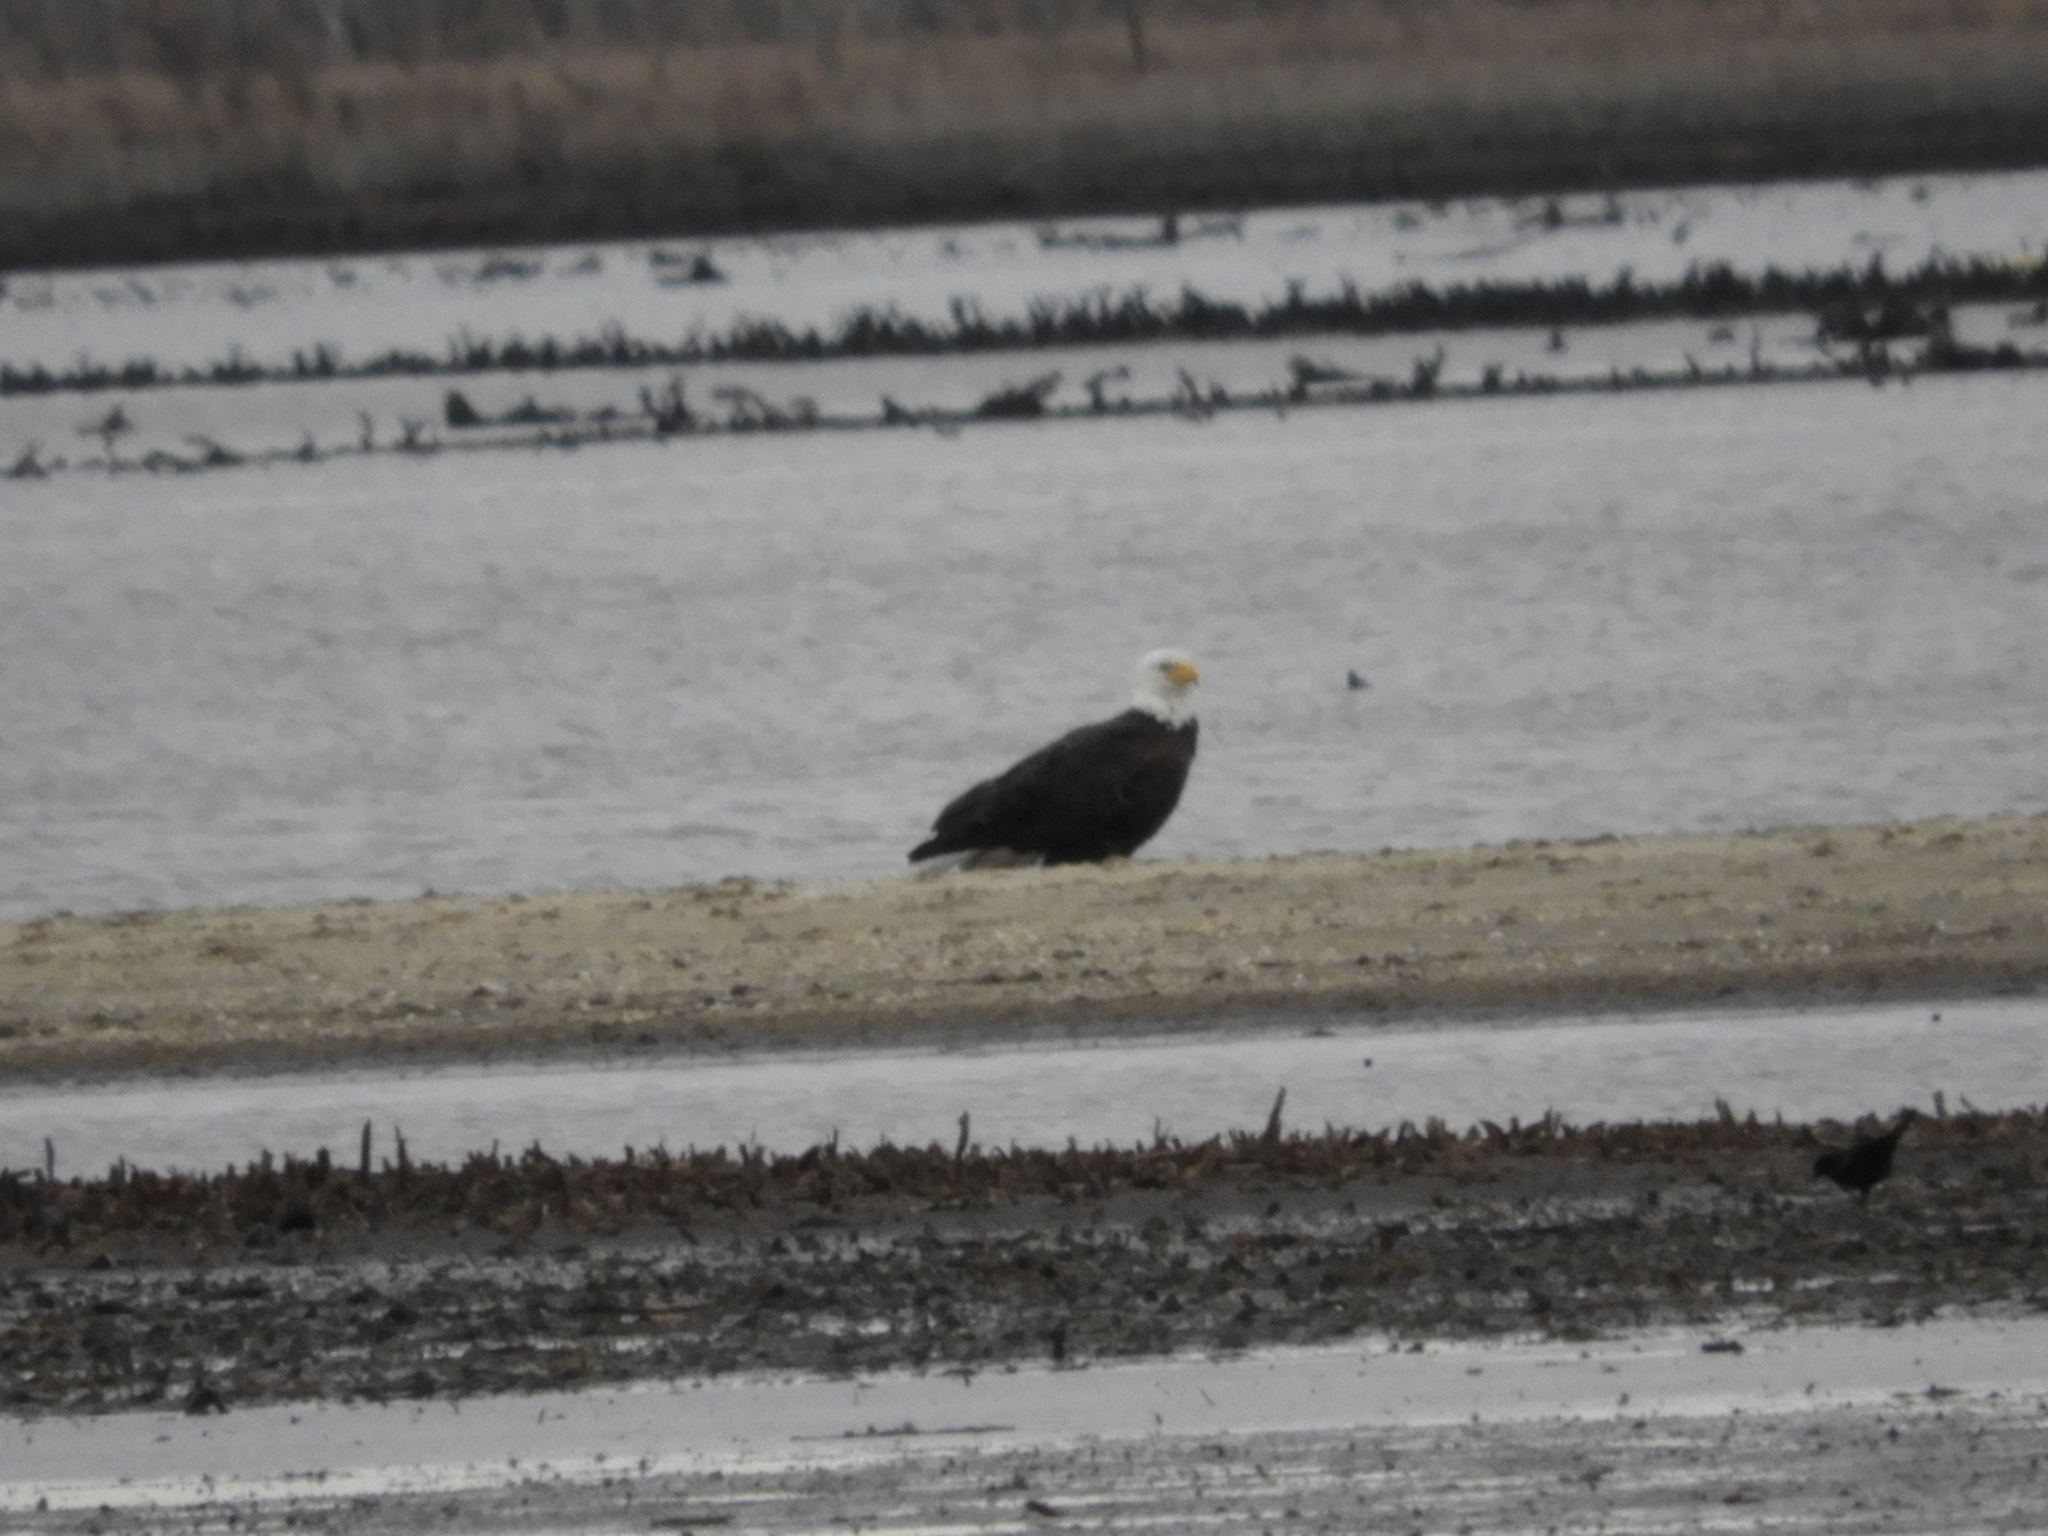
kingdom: Animalia
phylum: Chordata
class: Aves
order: Accipitriformes
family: Accipitridae
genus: Haliaeetus
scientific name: Haliaeetus leucocephalus
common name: Bald eagle
